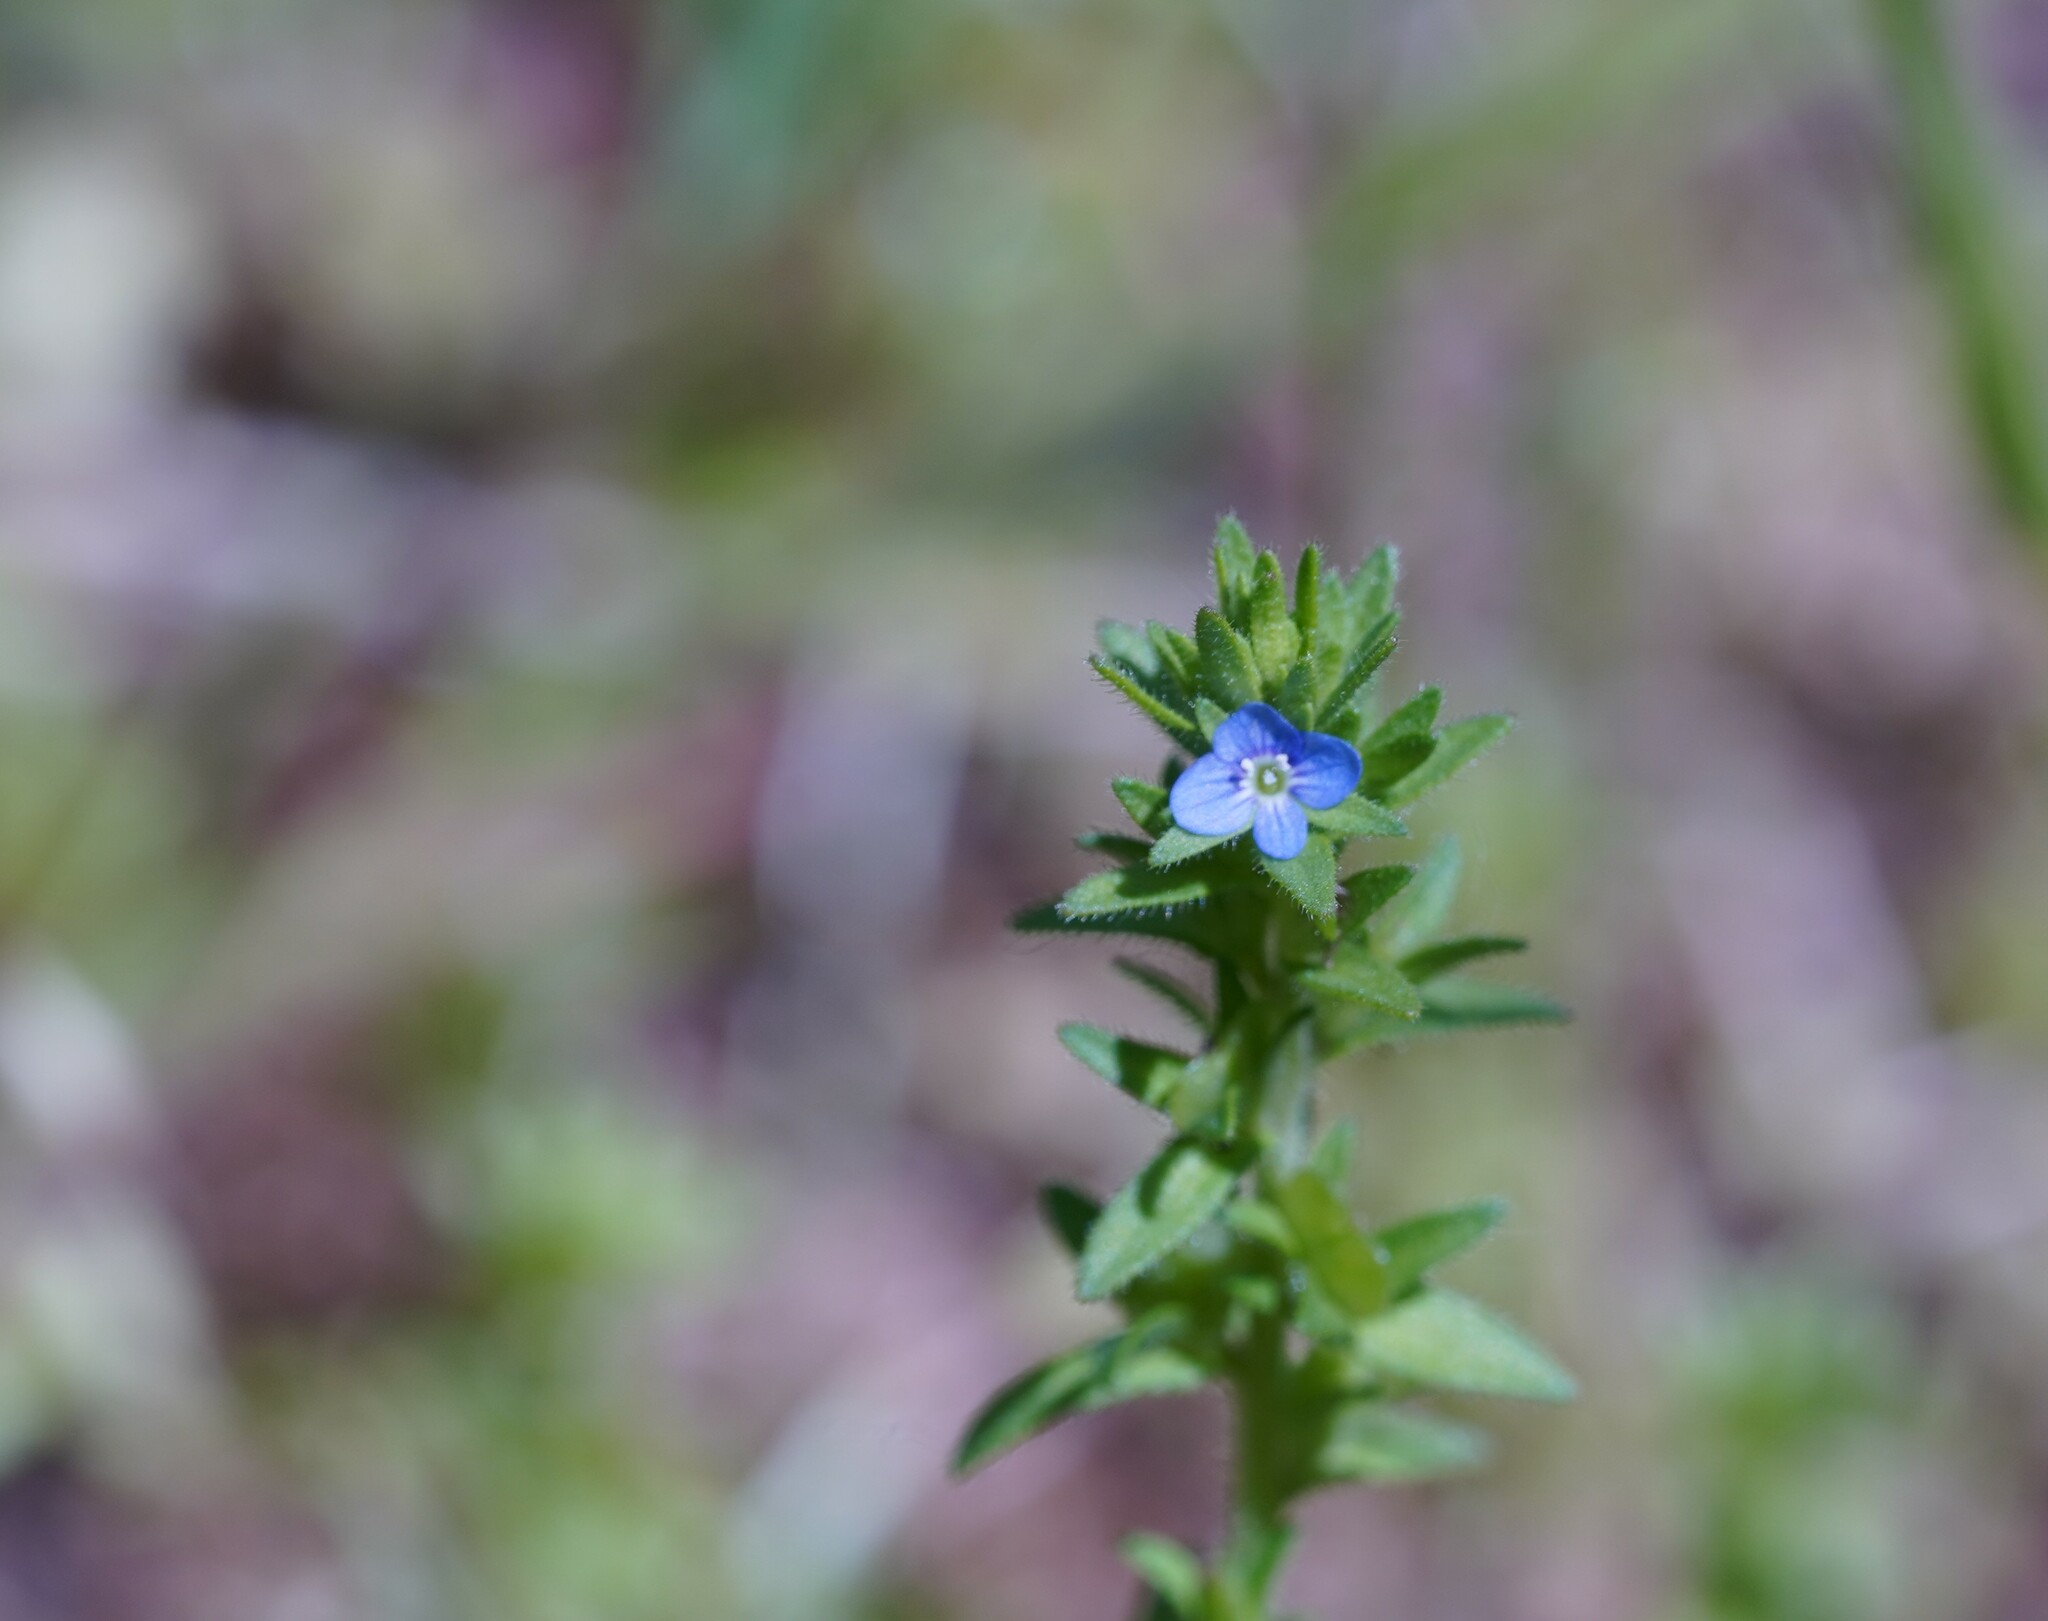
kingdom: Plantae
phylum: Tracheophyta
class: Magnoliopsida
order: Lamiales
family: Plantaginaceae
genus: Veronica
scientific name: Veronica arvensis
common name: Corn speedwell
